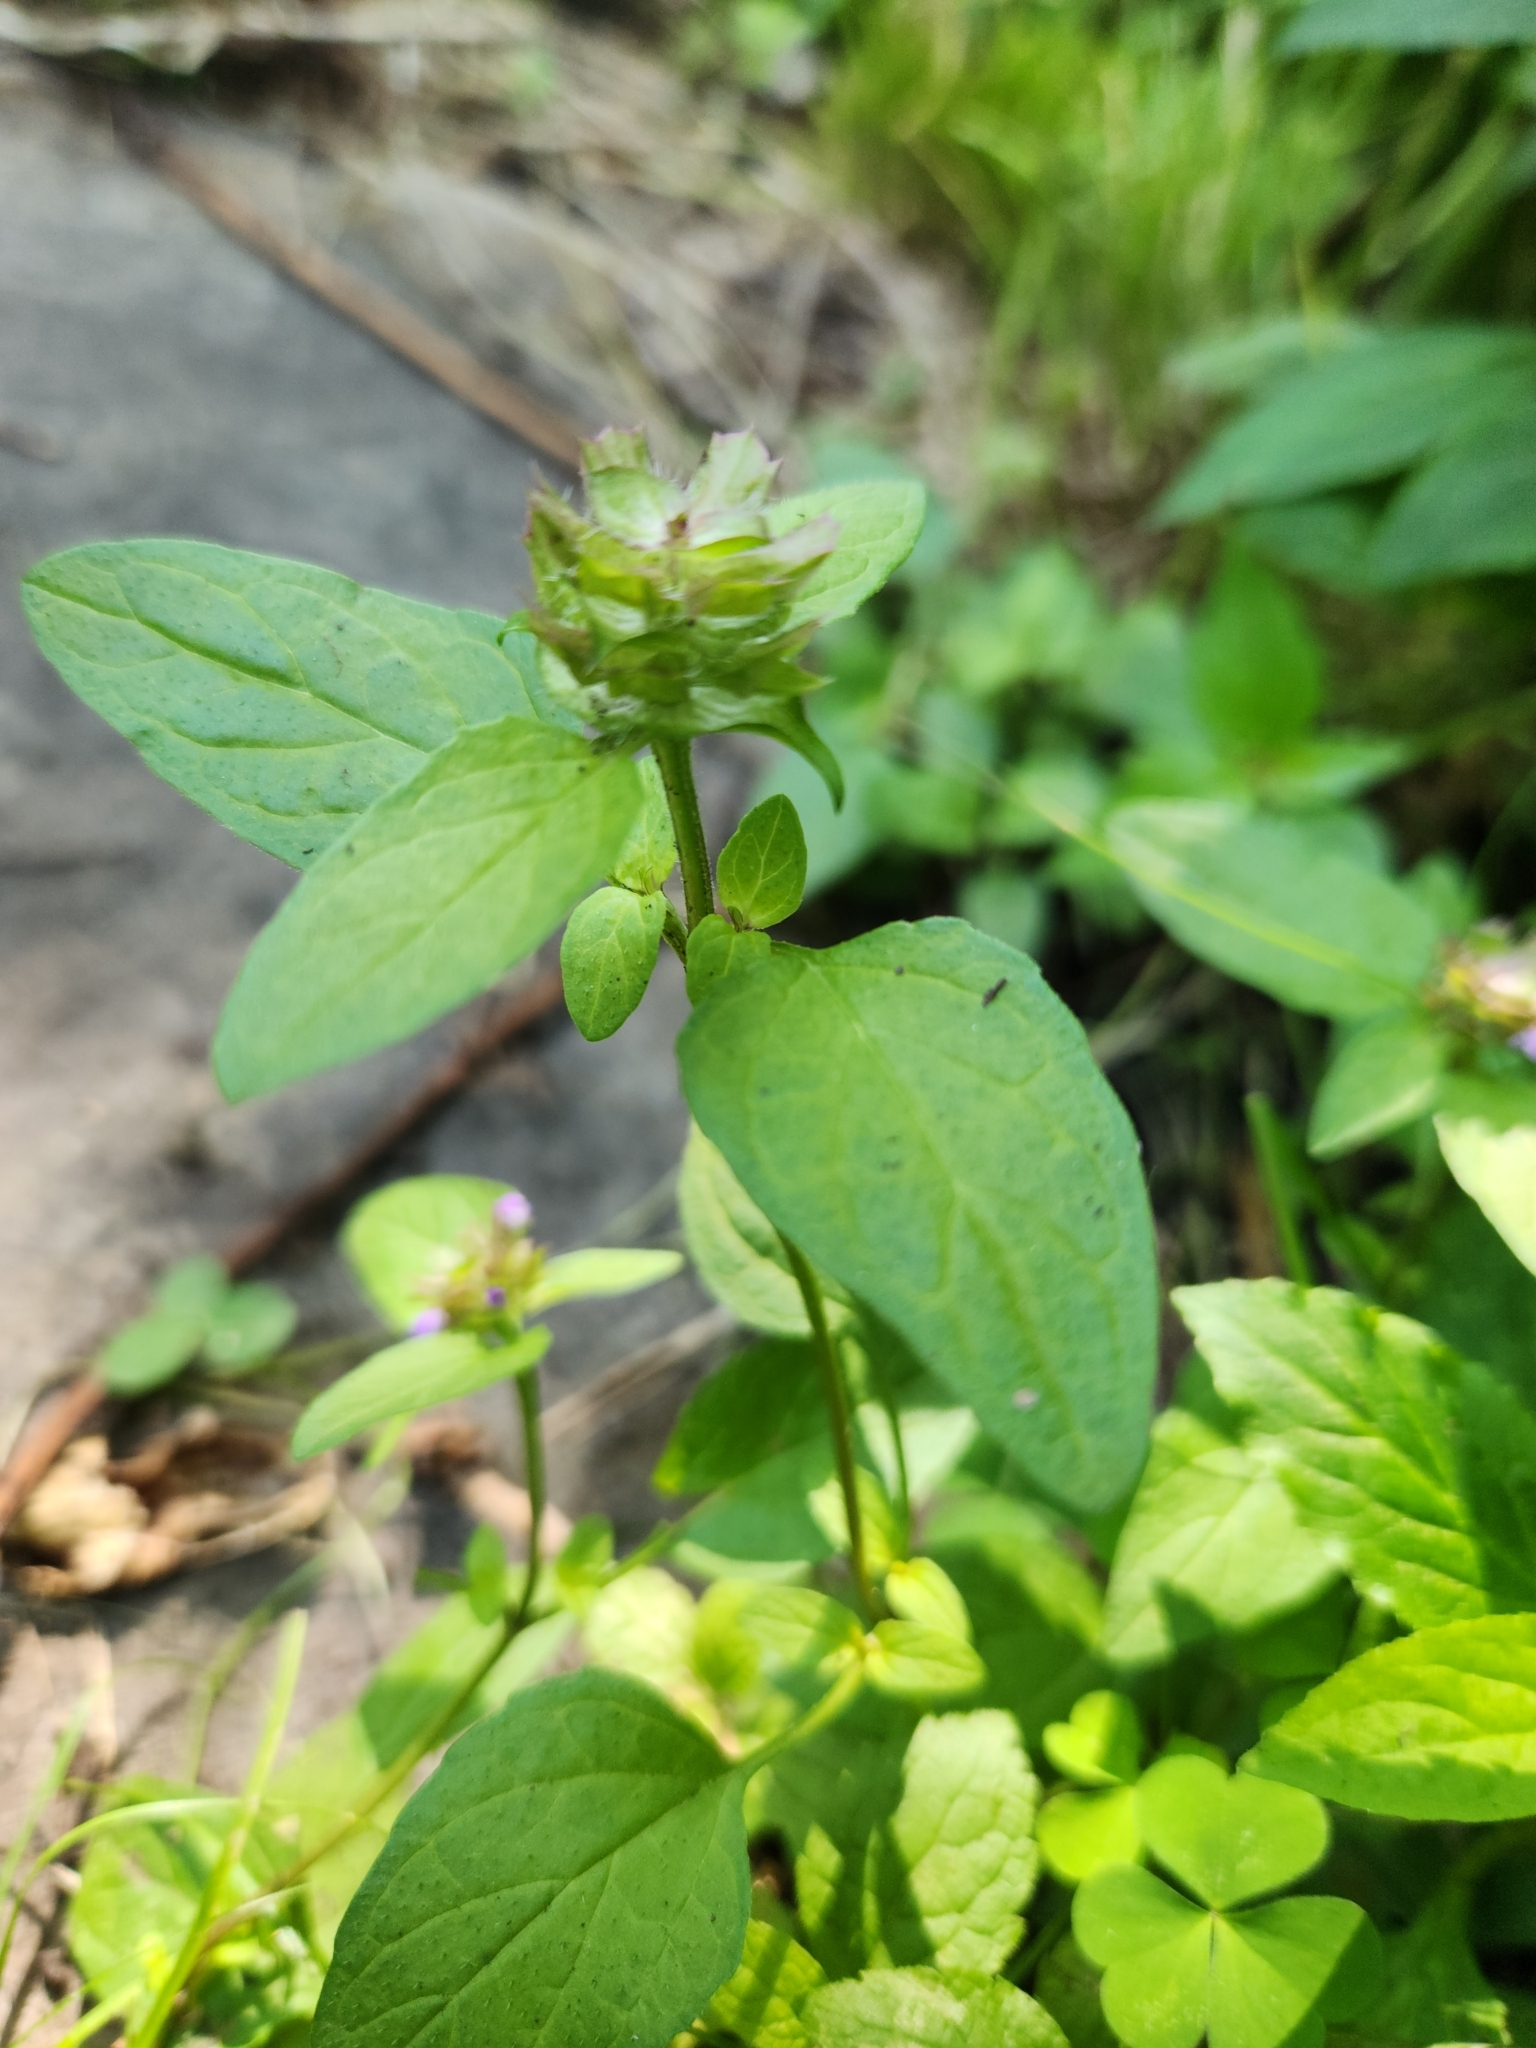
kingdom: Plantae
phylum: Tracheophyta
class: Magnoliopsida
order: Lamiales
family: Lamiaceae
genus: Prunella
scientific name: Prunella vulgaris
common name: Heal-all
